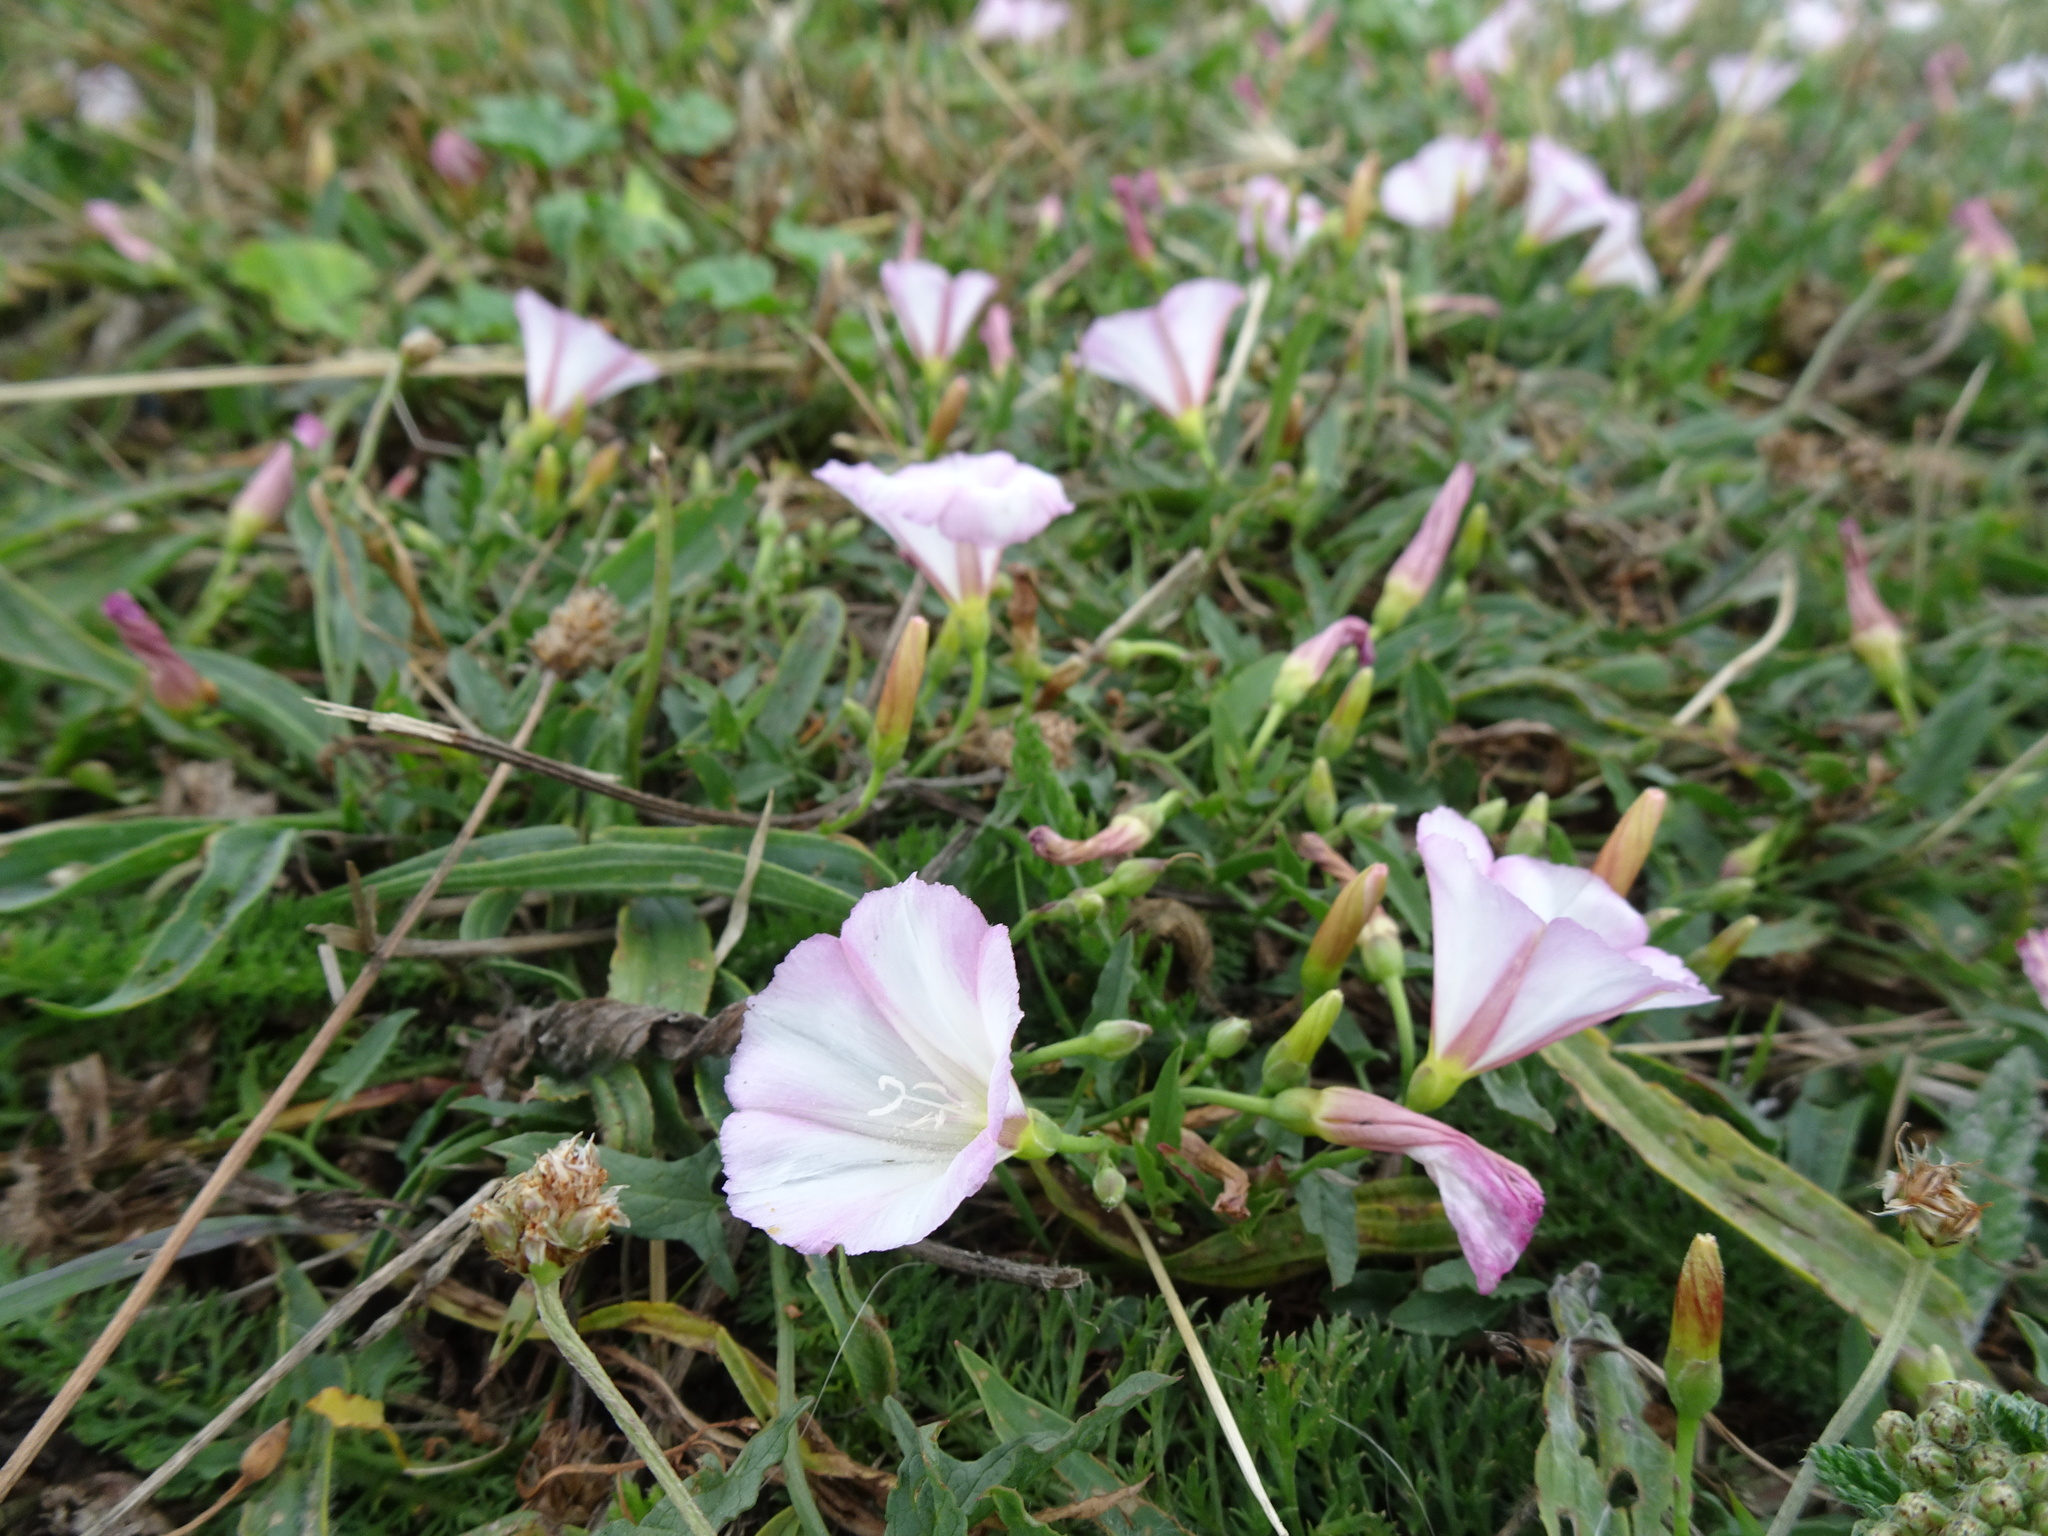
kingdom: Plantae
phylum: Tracheophyta
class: Magnoliopsida
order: Solanales
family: Convolvulaceae
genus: Convolvulus
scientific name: Convolvulus arvensis
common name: Field bindweed
